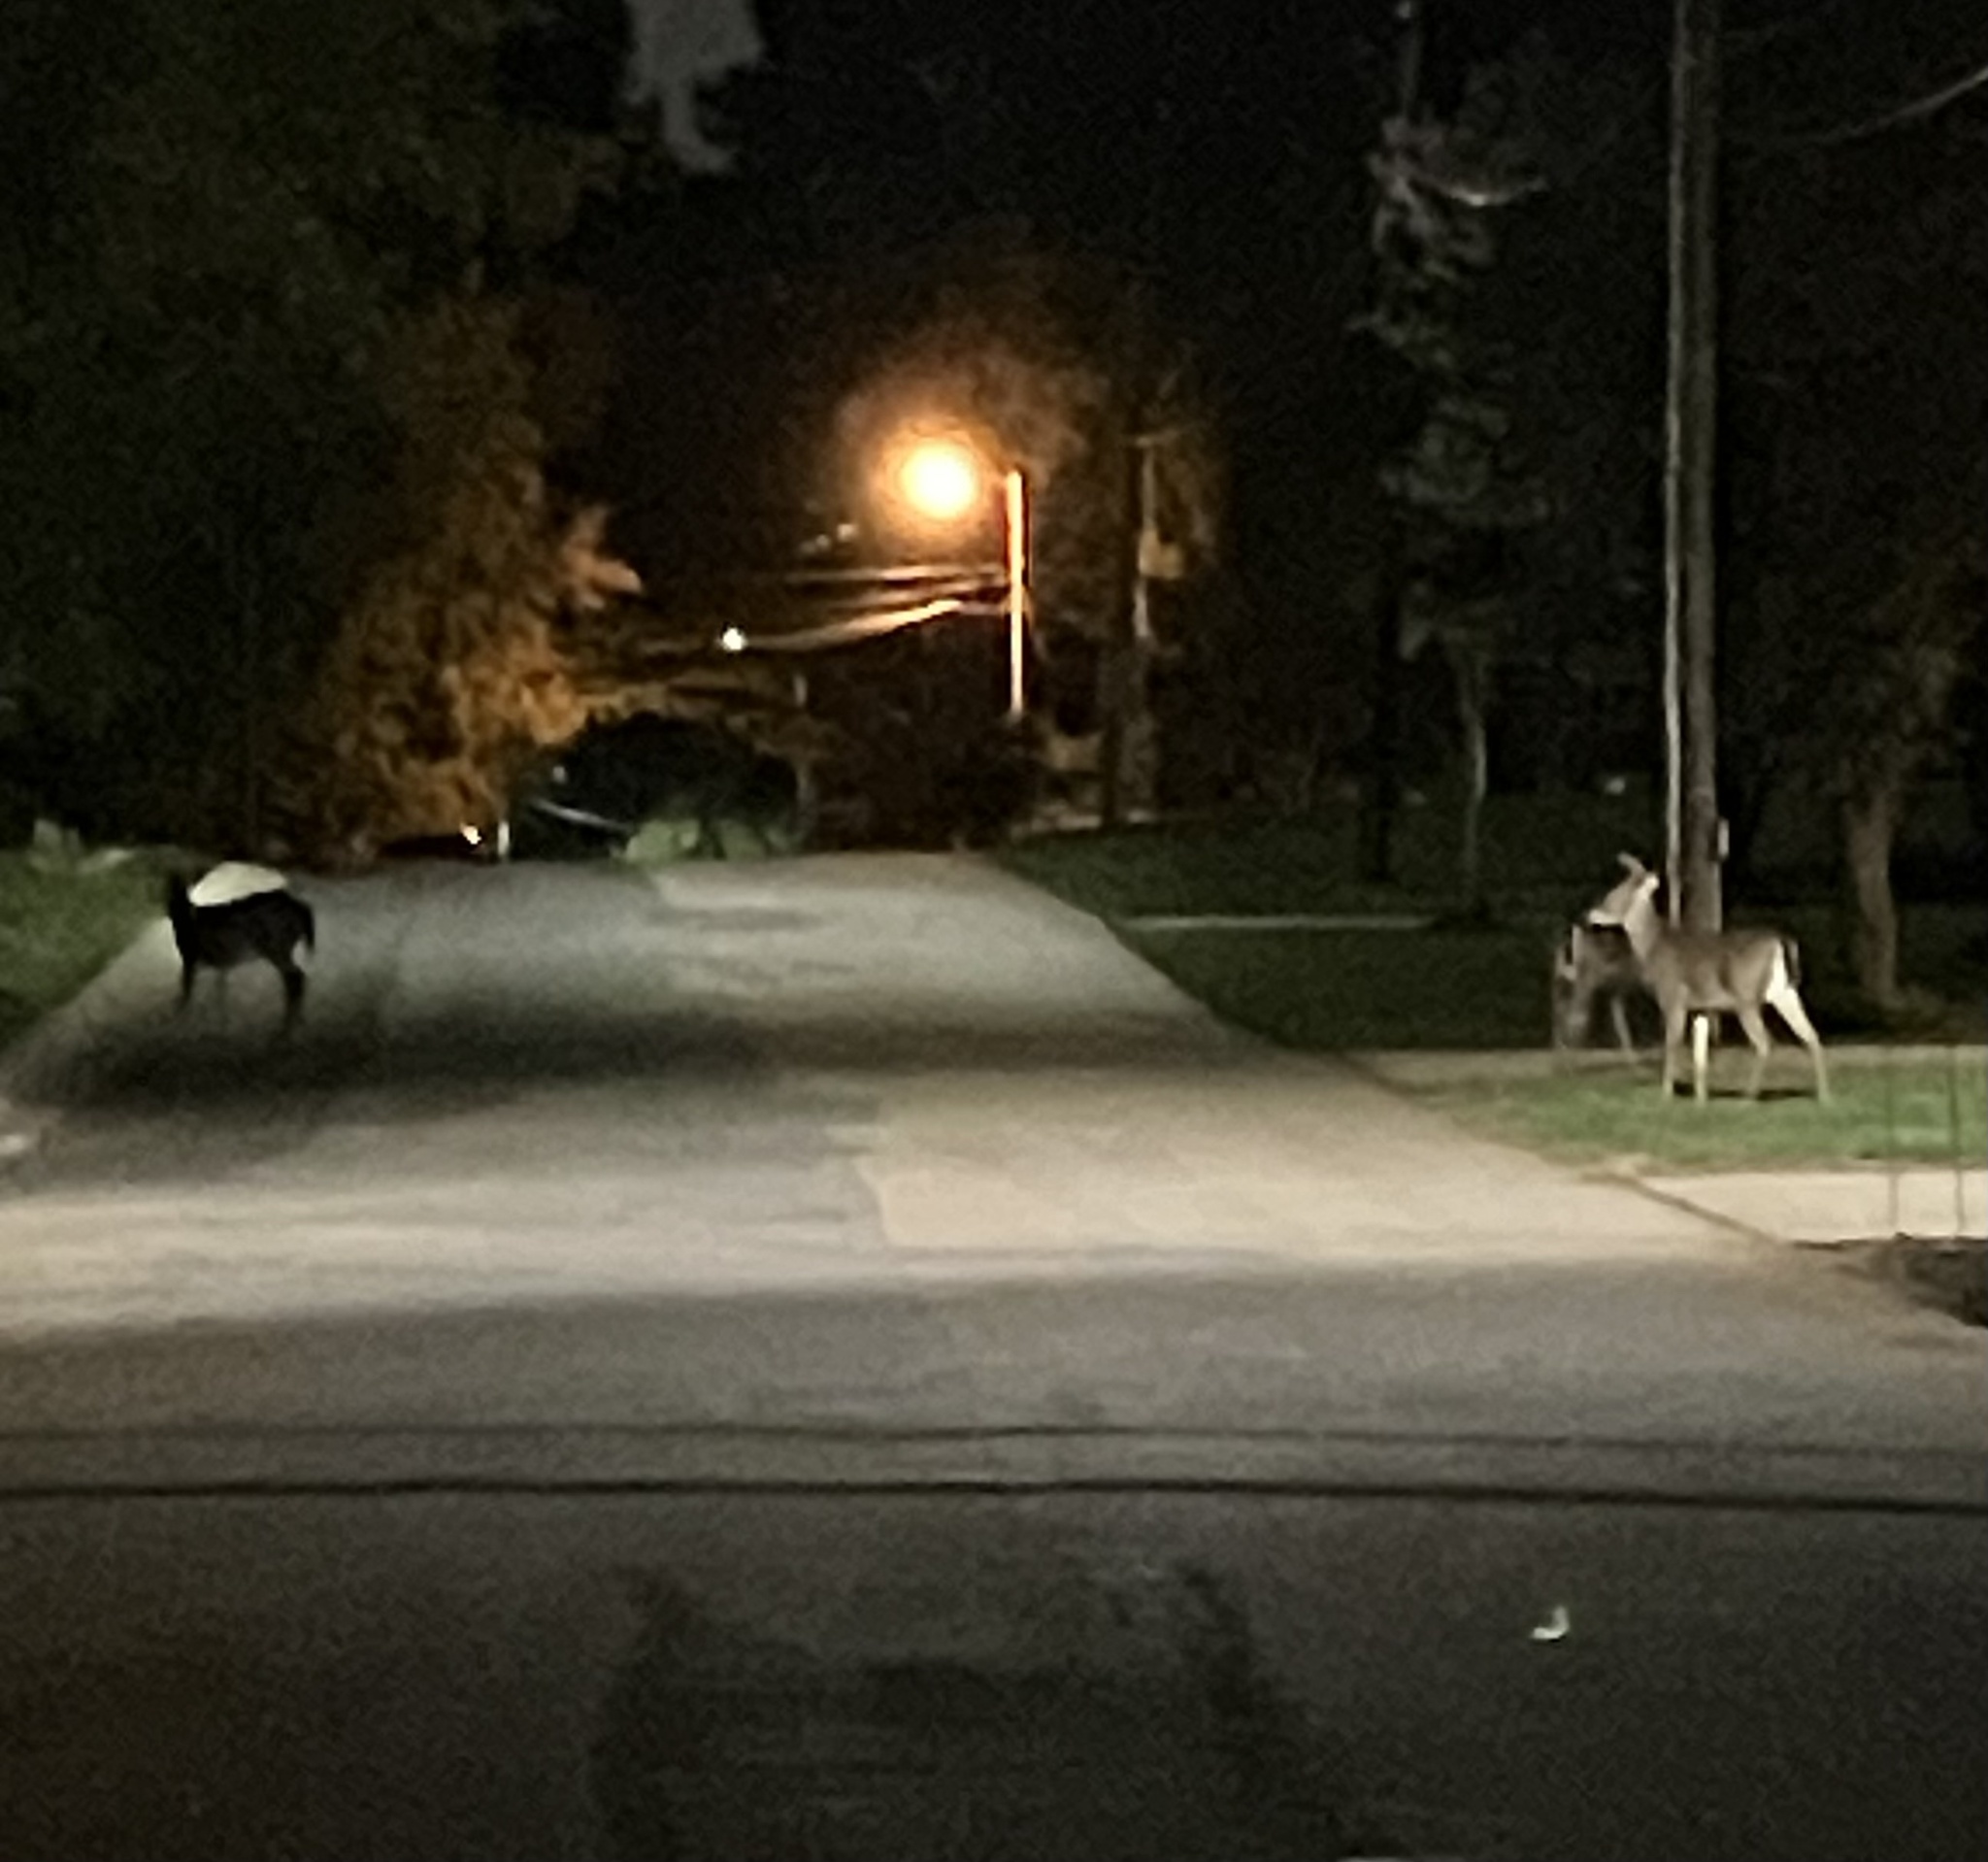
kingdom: Animalia
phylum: Chordata
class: Mammalia
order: Artiodactyla
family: Cervidae
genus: Odocoileus
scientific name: Odocoileus virginianus
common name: White-tailed deer
